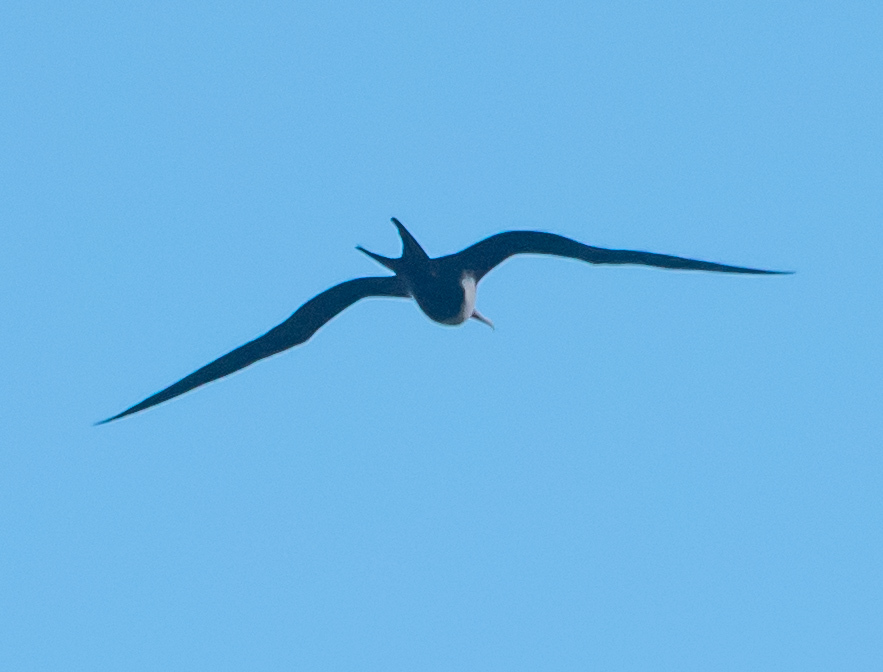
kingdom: Animalia
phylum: Chordata
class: Aves
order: Suliformes
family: Fregatidae
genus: Fregata
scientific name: Fregata minor
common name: Great frigatebird
